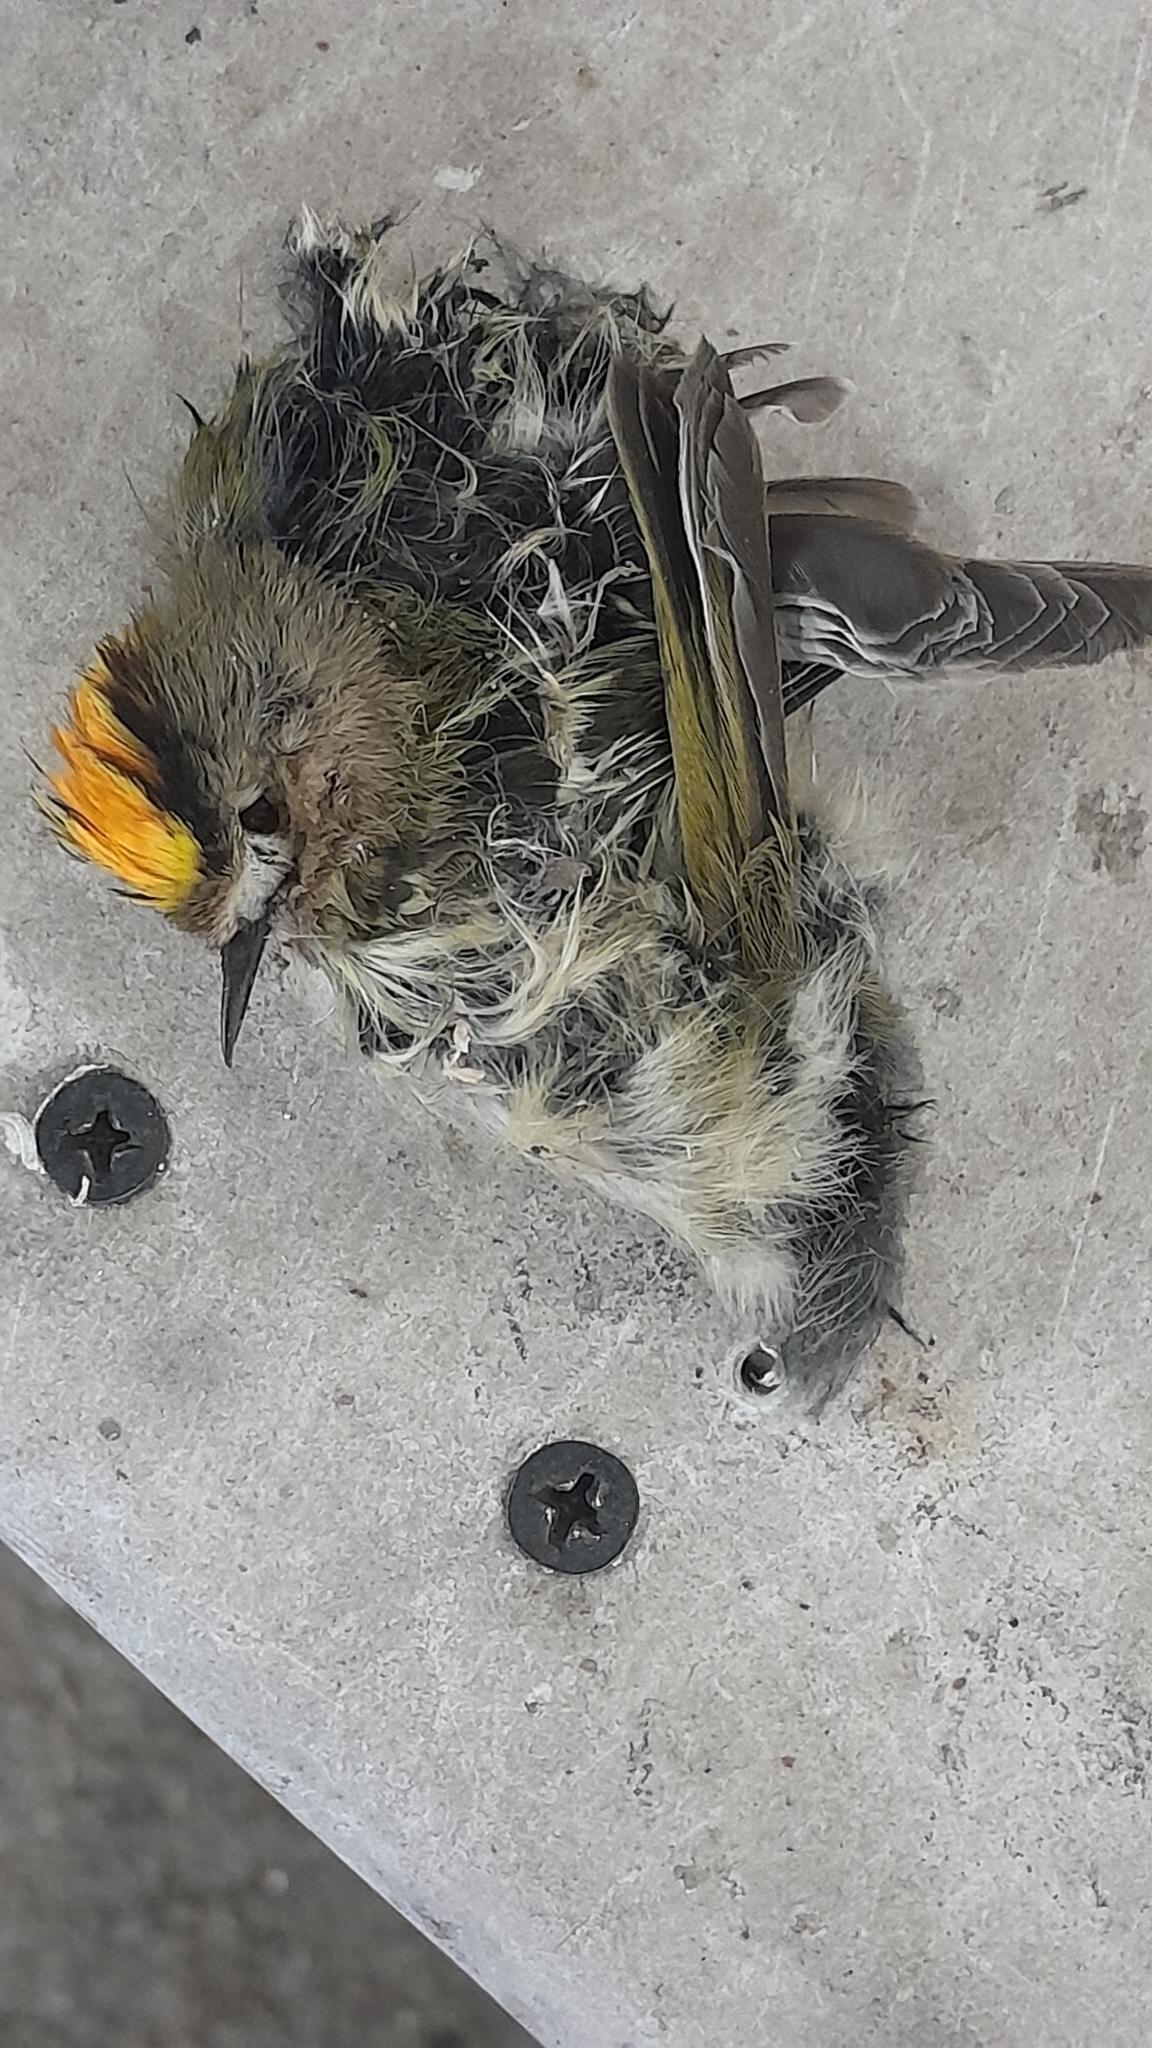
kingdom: Animalia
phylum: Chordata
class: Aves
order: Passeriformes
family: Regulidae
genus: Regulus
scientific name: Regulus regulus
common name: Goldcrest
